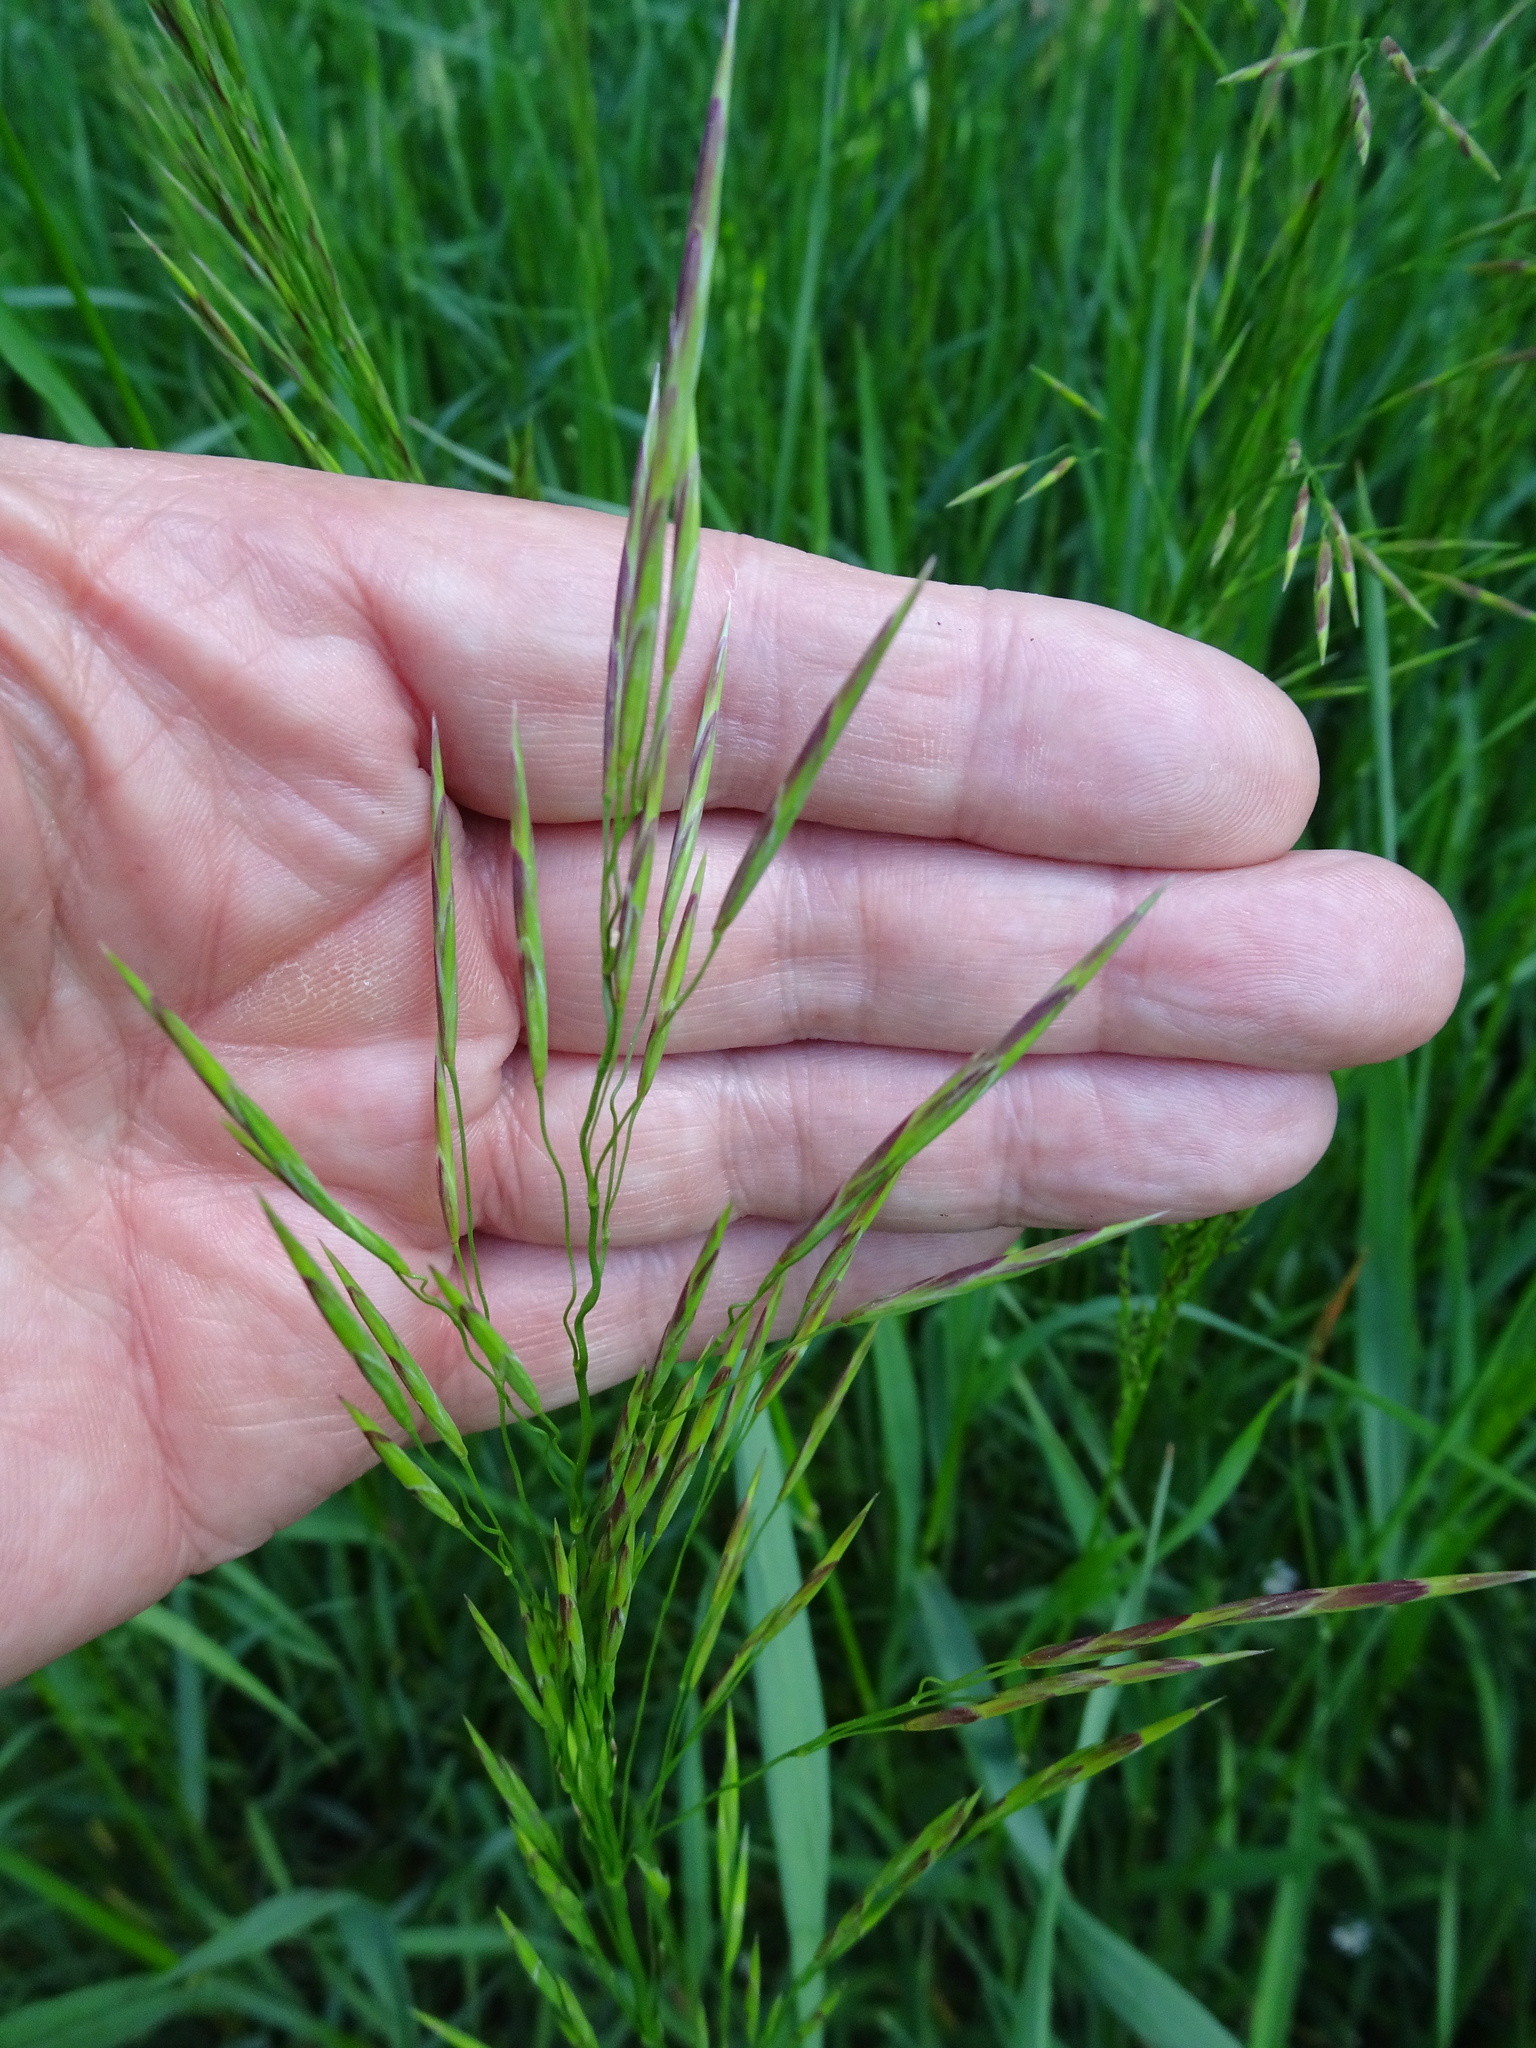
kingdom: Plantae
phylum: Tracheophyta
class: Liliopsida
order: Poales
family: Poaceae
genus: Bromus
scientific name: Bromus inermis
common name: Smooth brome
